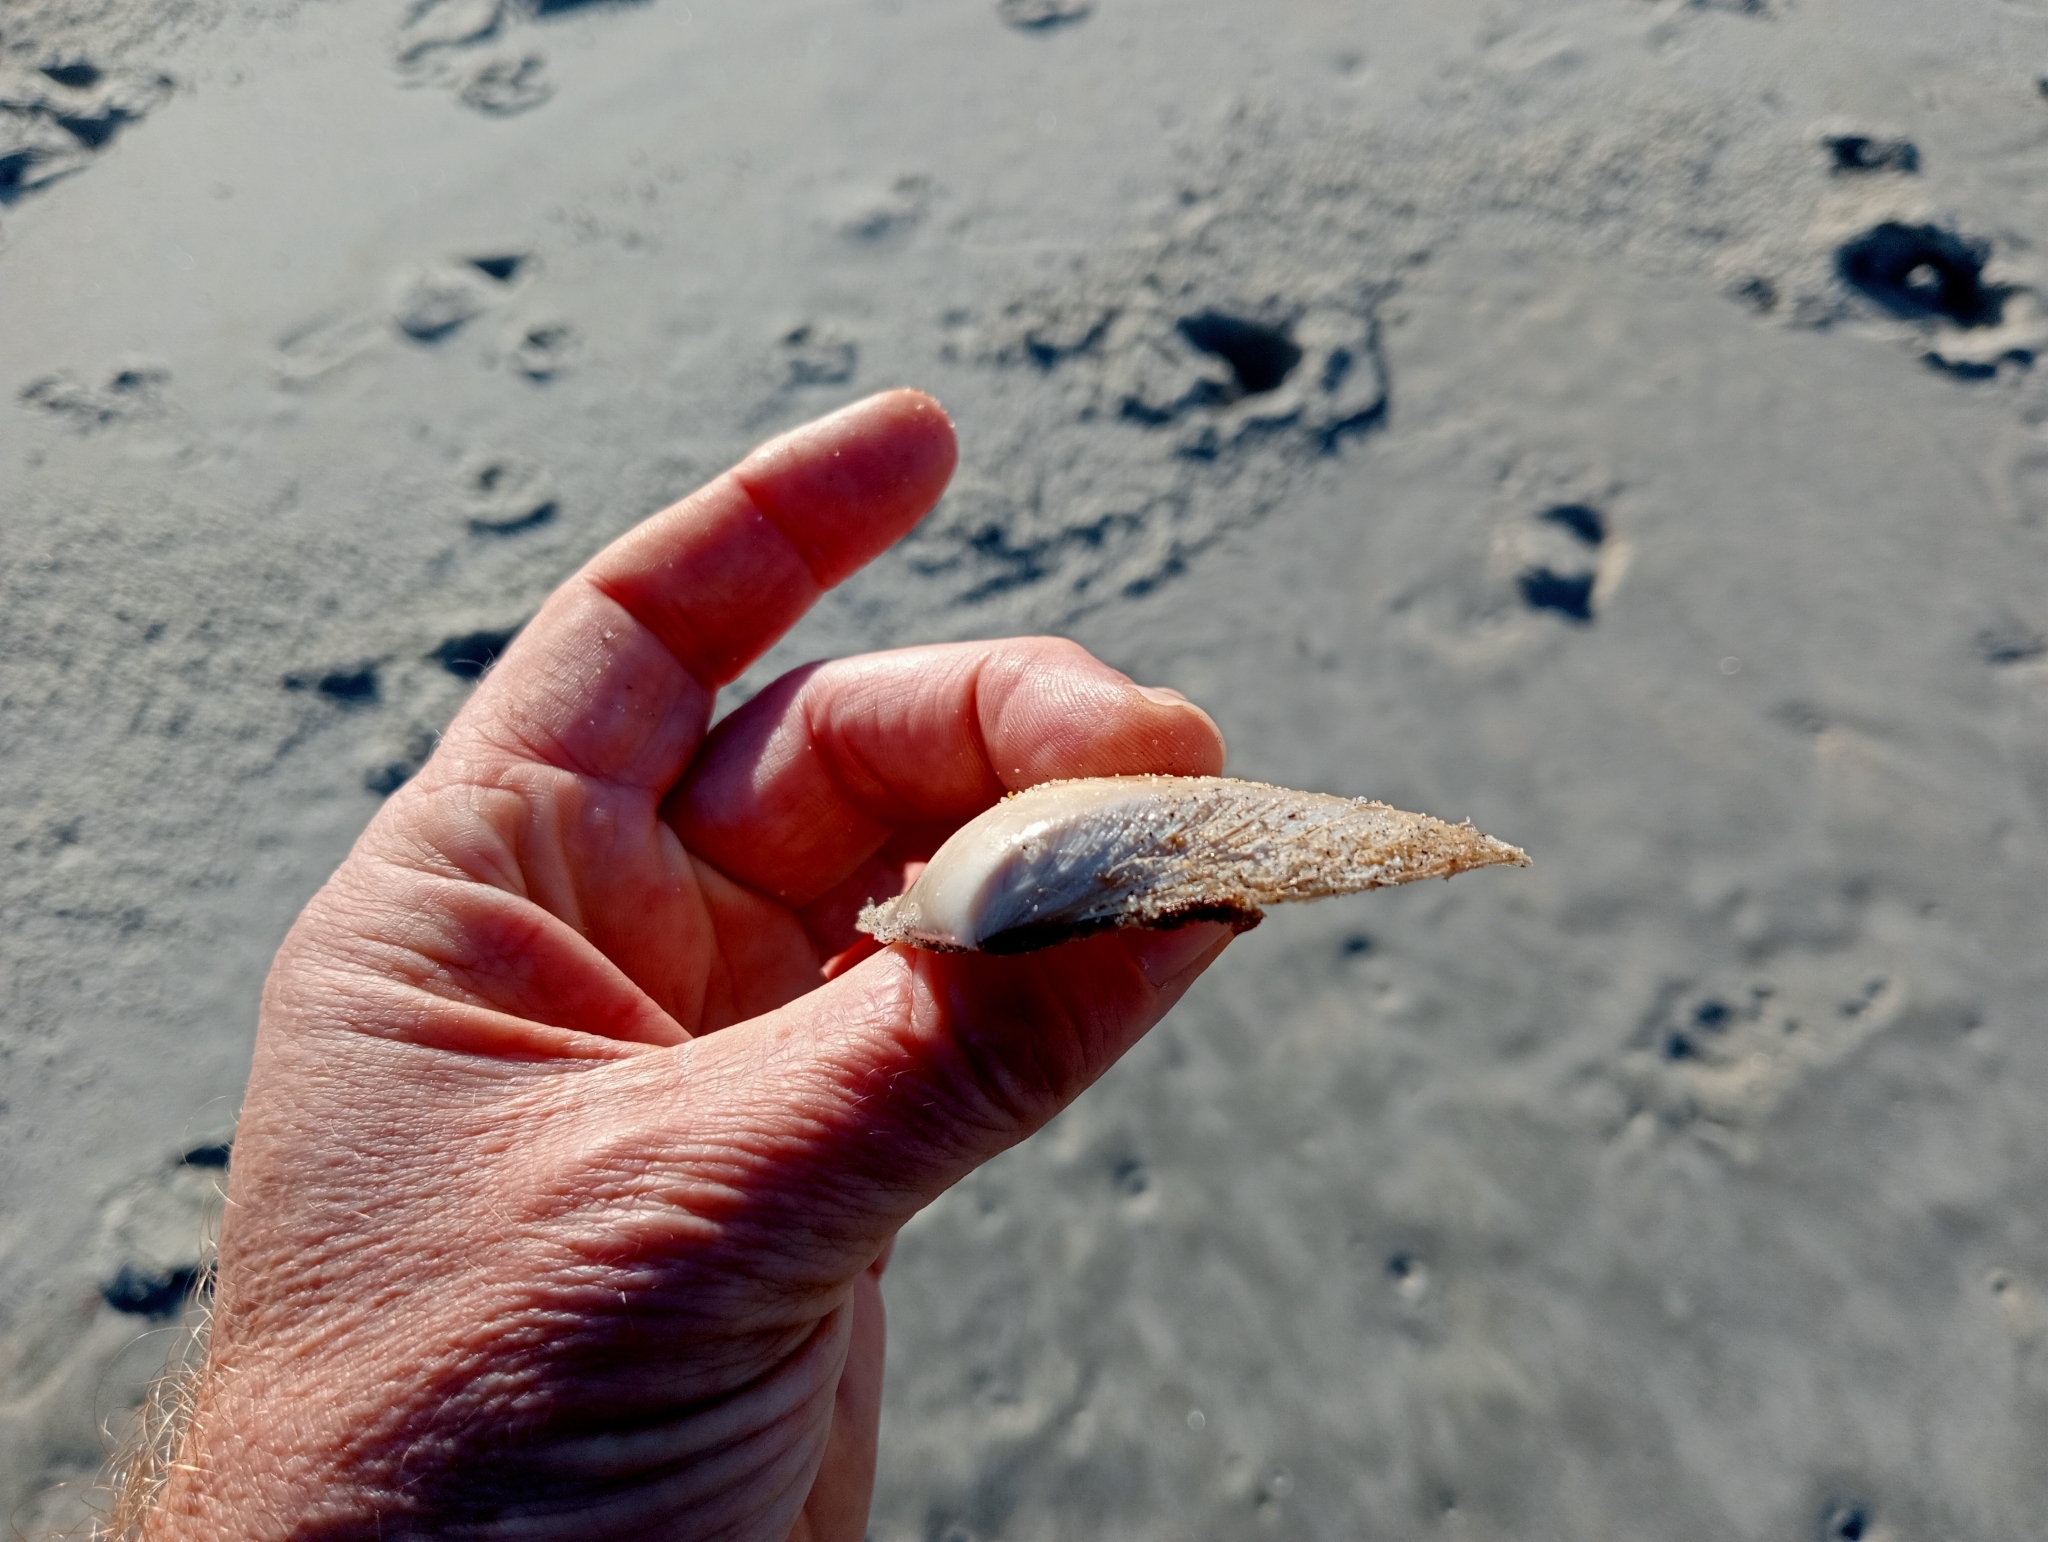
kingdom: Animalia
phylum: Mollusca
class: Bivalvia
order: Venerida
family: Mesodesmatidae
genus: Paphies
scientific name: Paphies donacina
